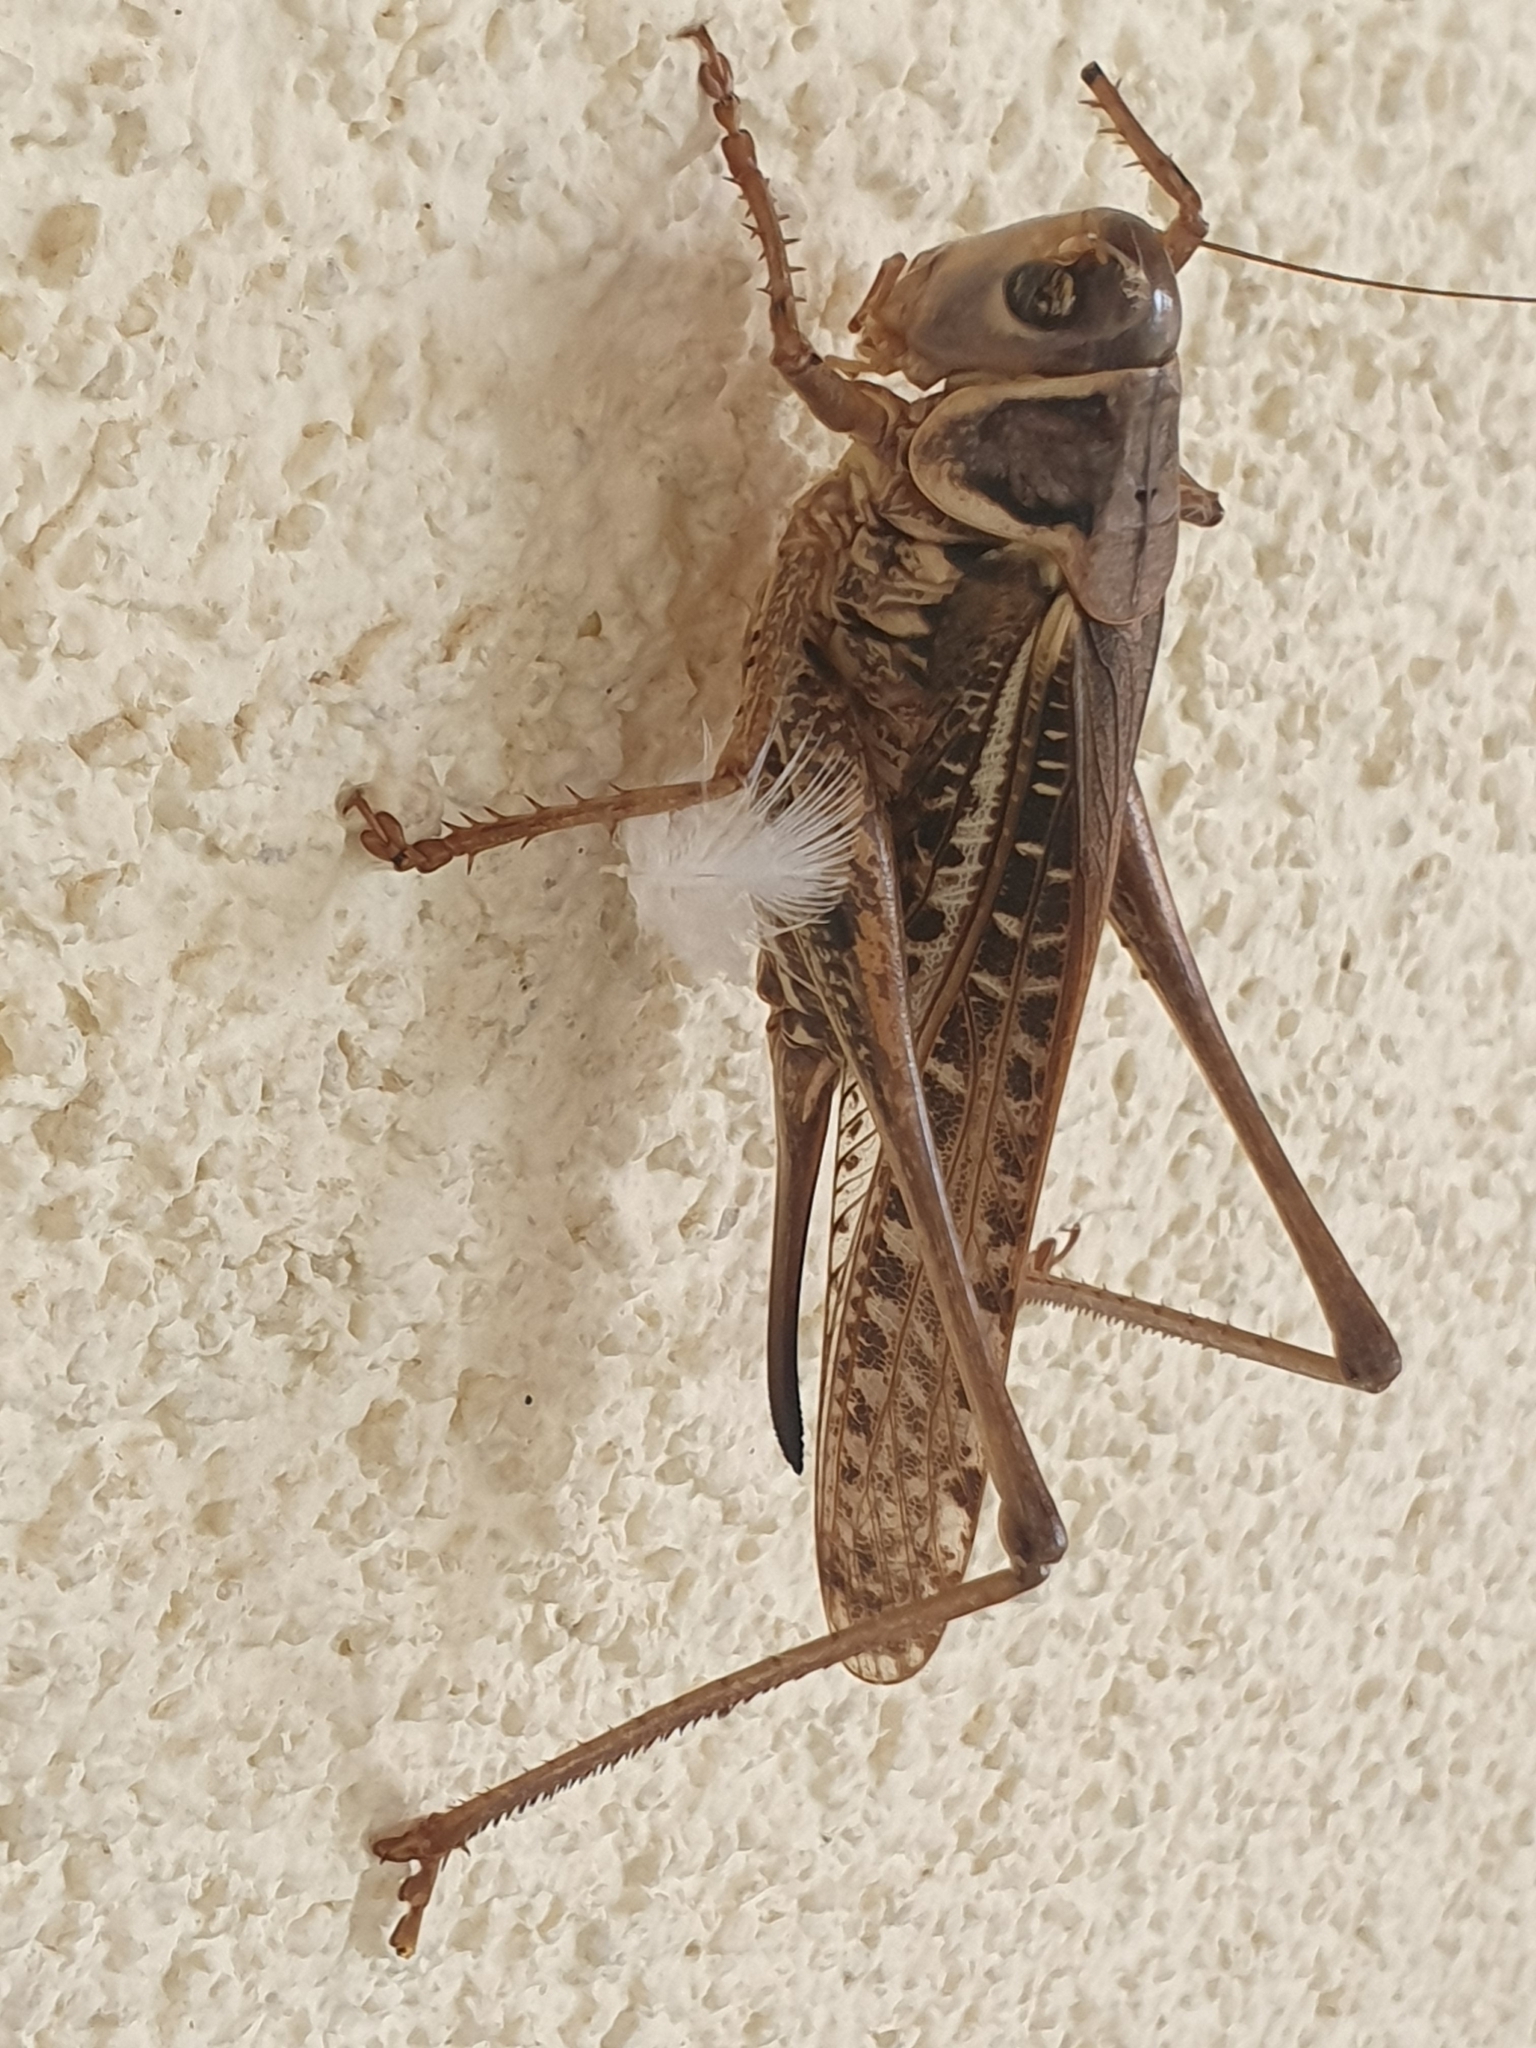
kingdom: Animalia
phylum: Arthropoda
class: Insecta
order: Orthoptera
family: Tettigoniidae
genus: Decticus
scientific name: Decticus albifrons
